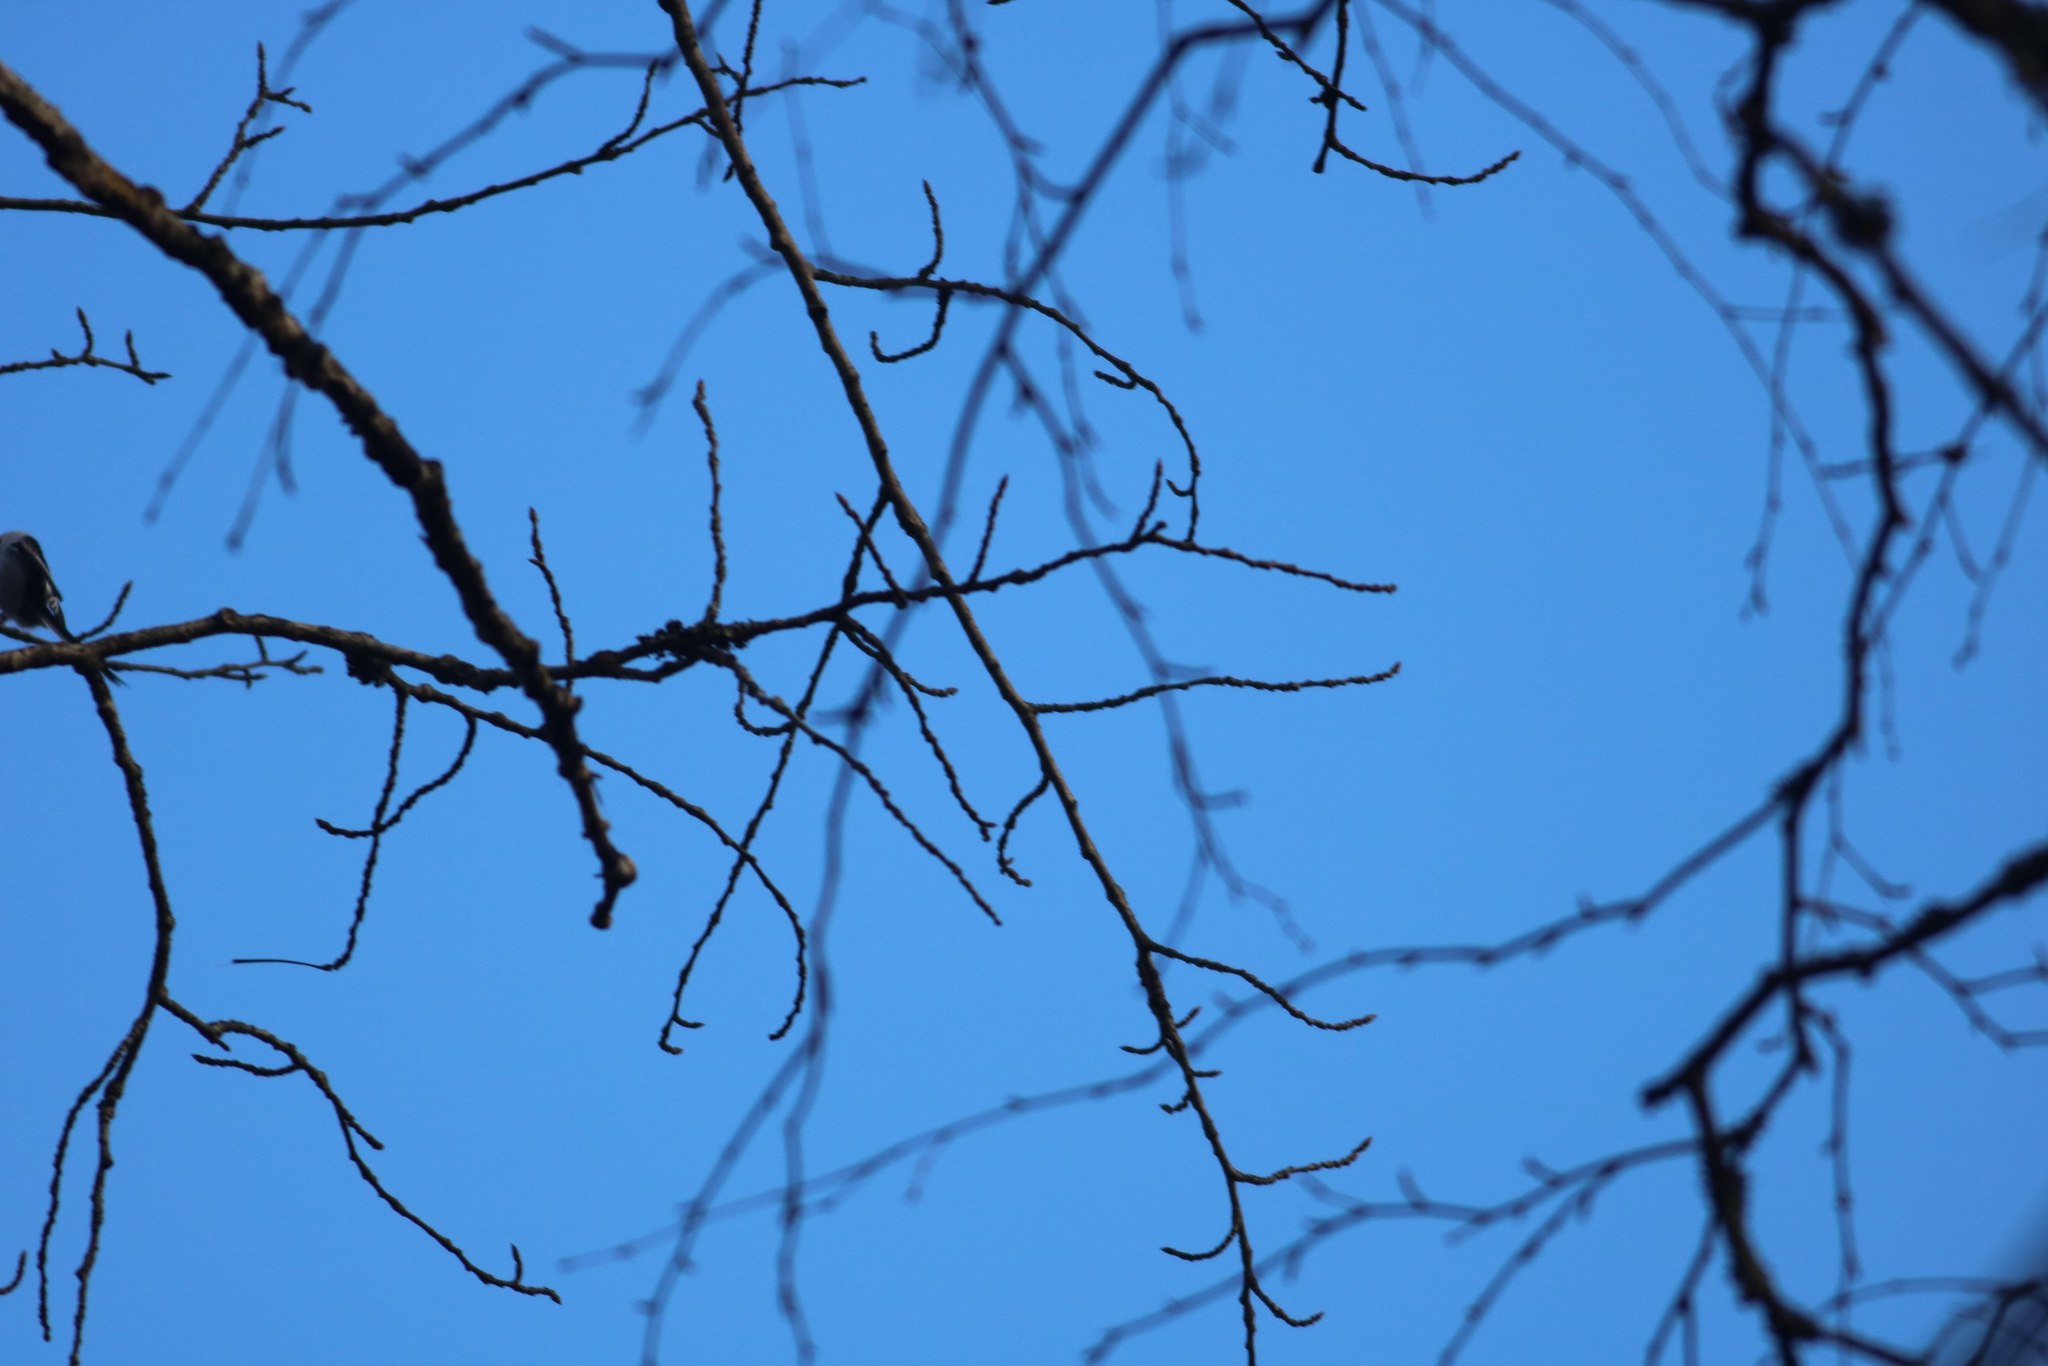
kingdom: Animalia
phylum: Chordata
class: Aves
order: Passeriformes
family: Aegithalidae
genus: Aegithalos
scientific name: Aegithalos caudatus
